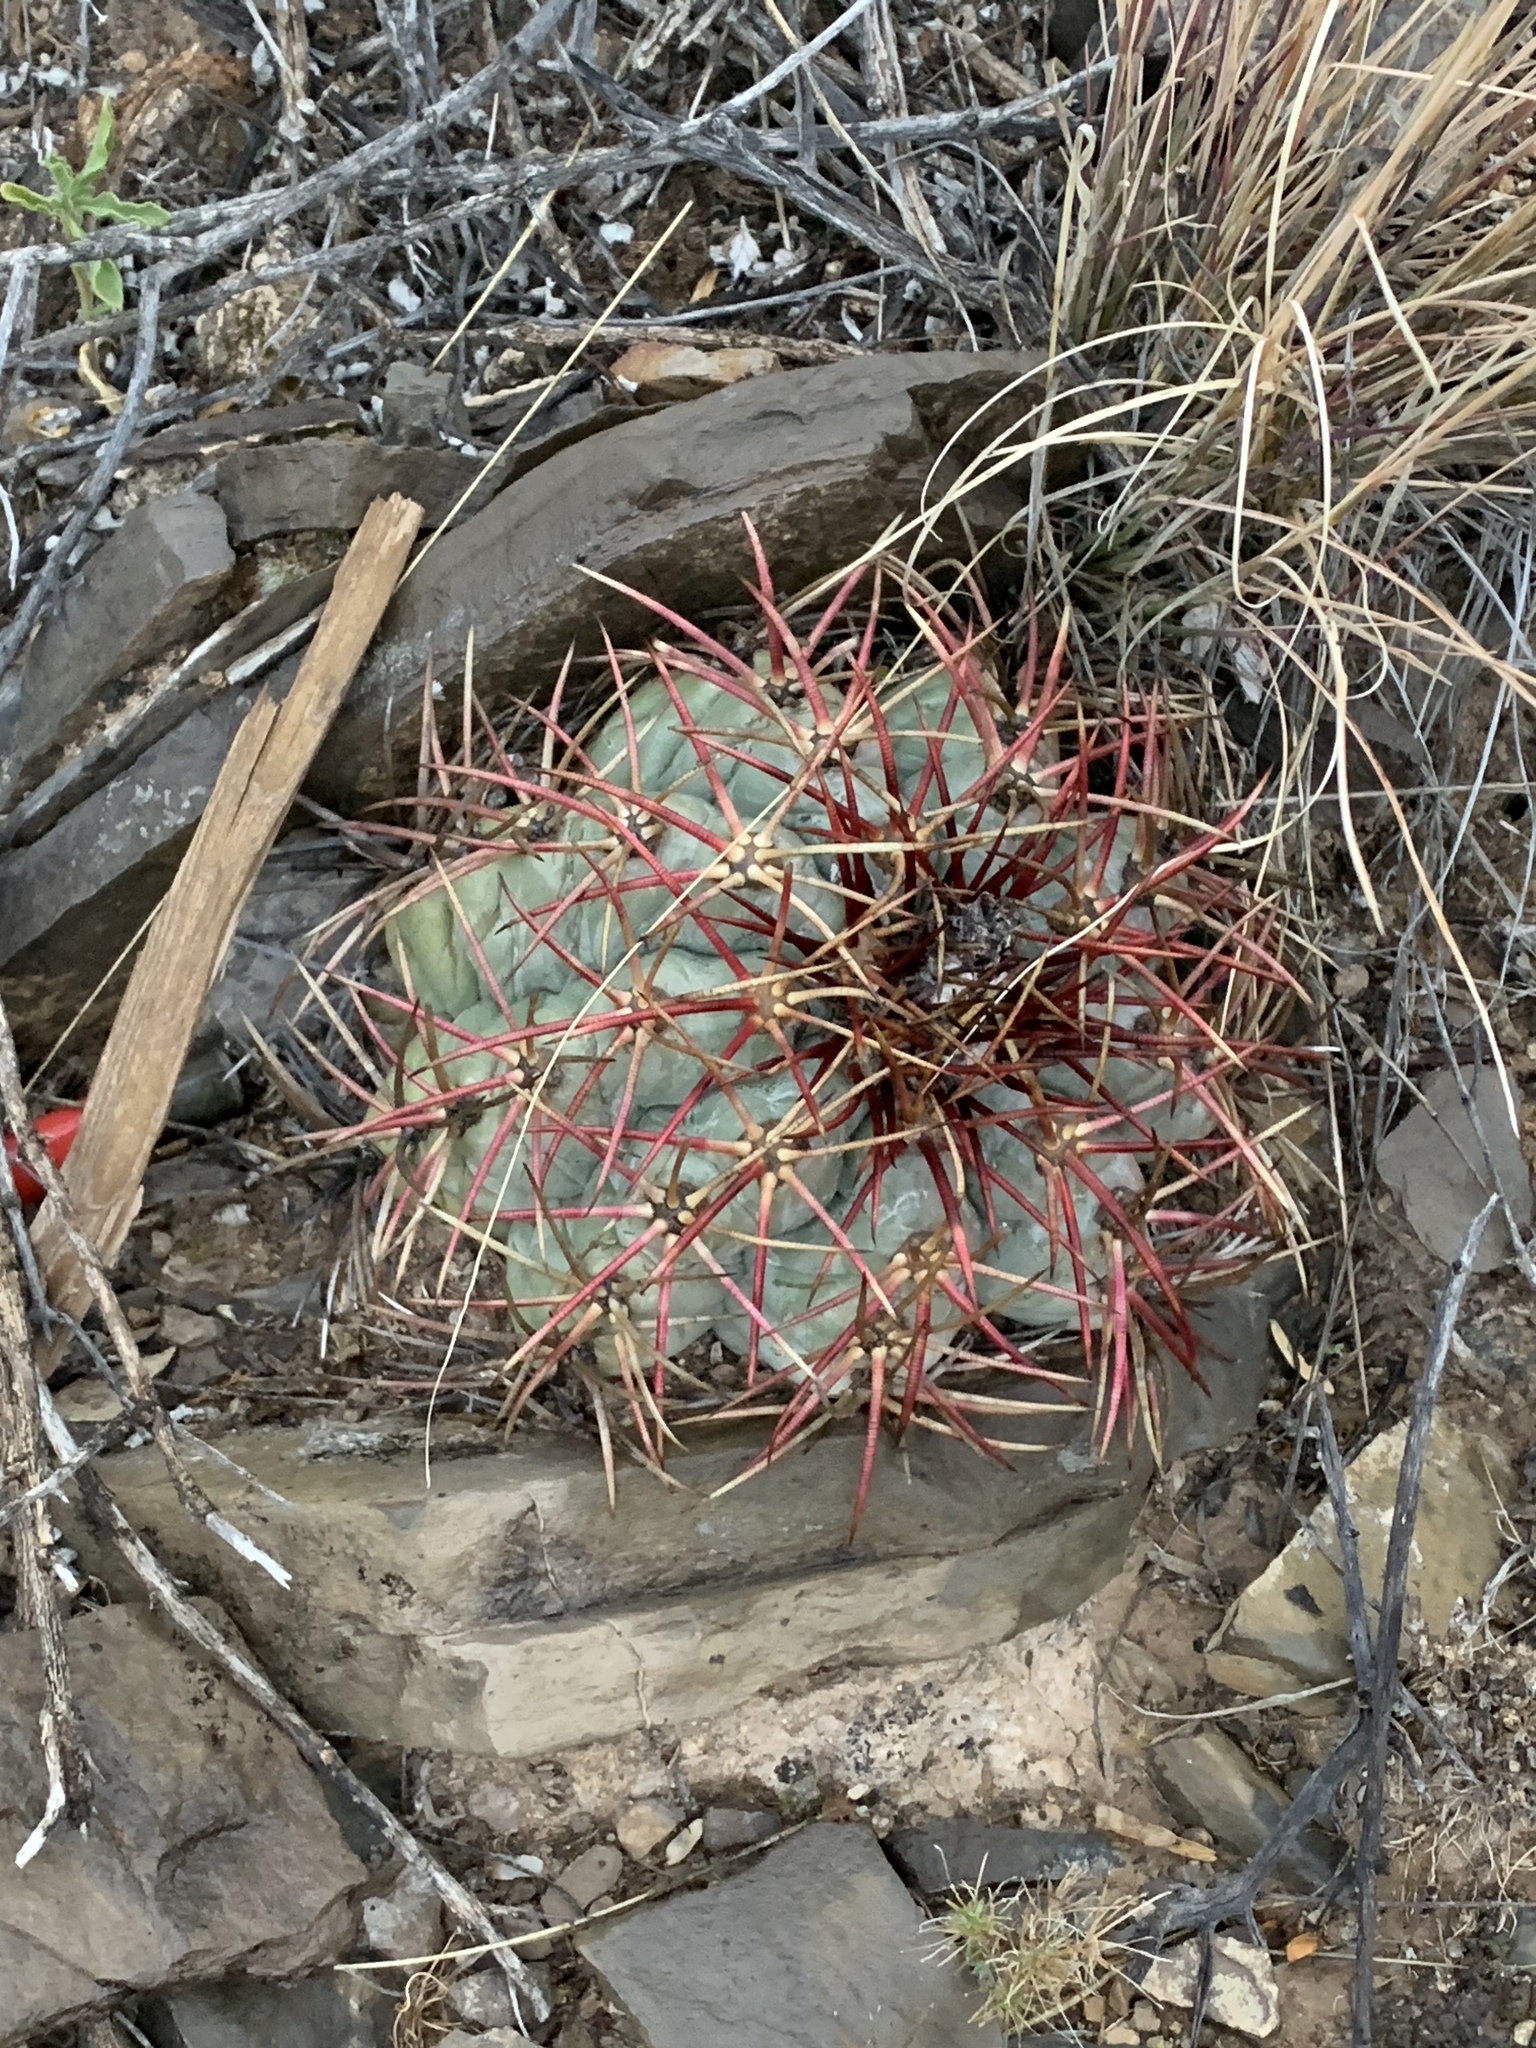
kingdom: Plantae
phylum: Tracheophyta
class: Magnoliopsida
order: Caryophyllales
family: Cactaceae
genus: Echinocactus
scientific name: Echinocactus horizonthalonius
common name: Devilshead
